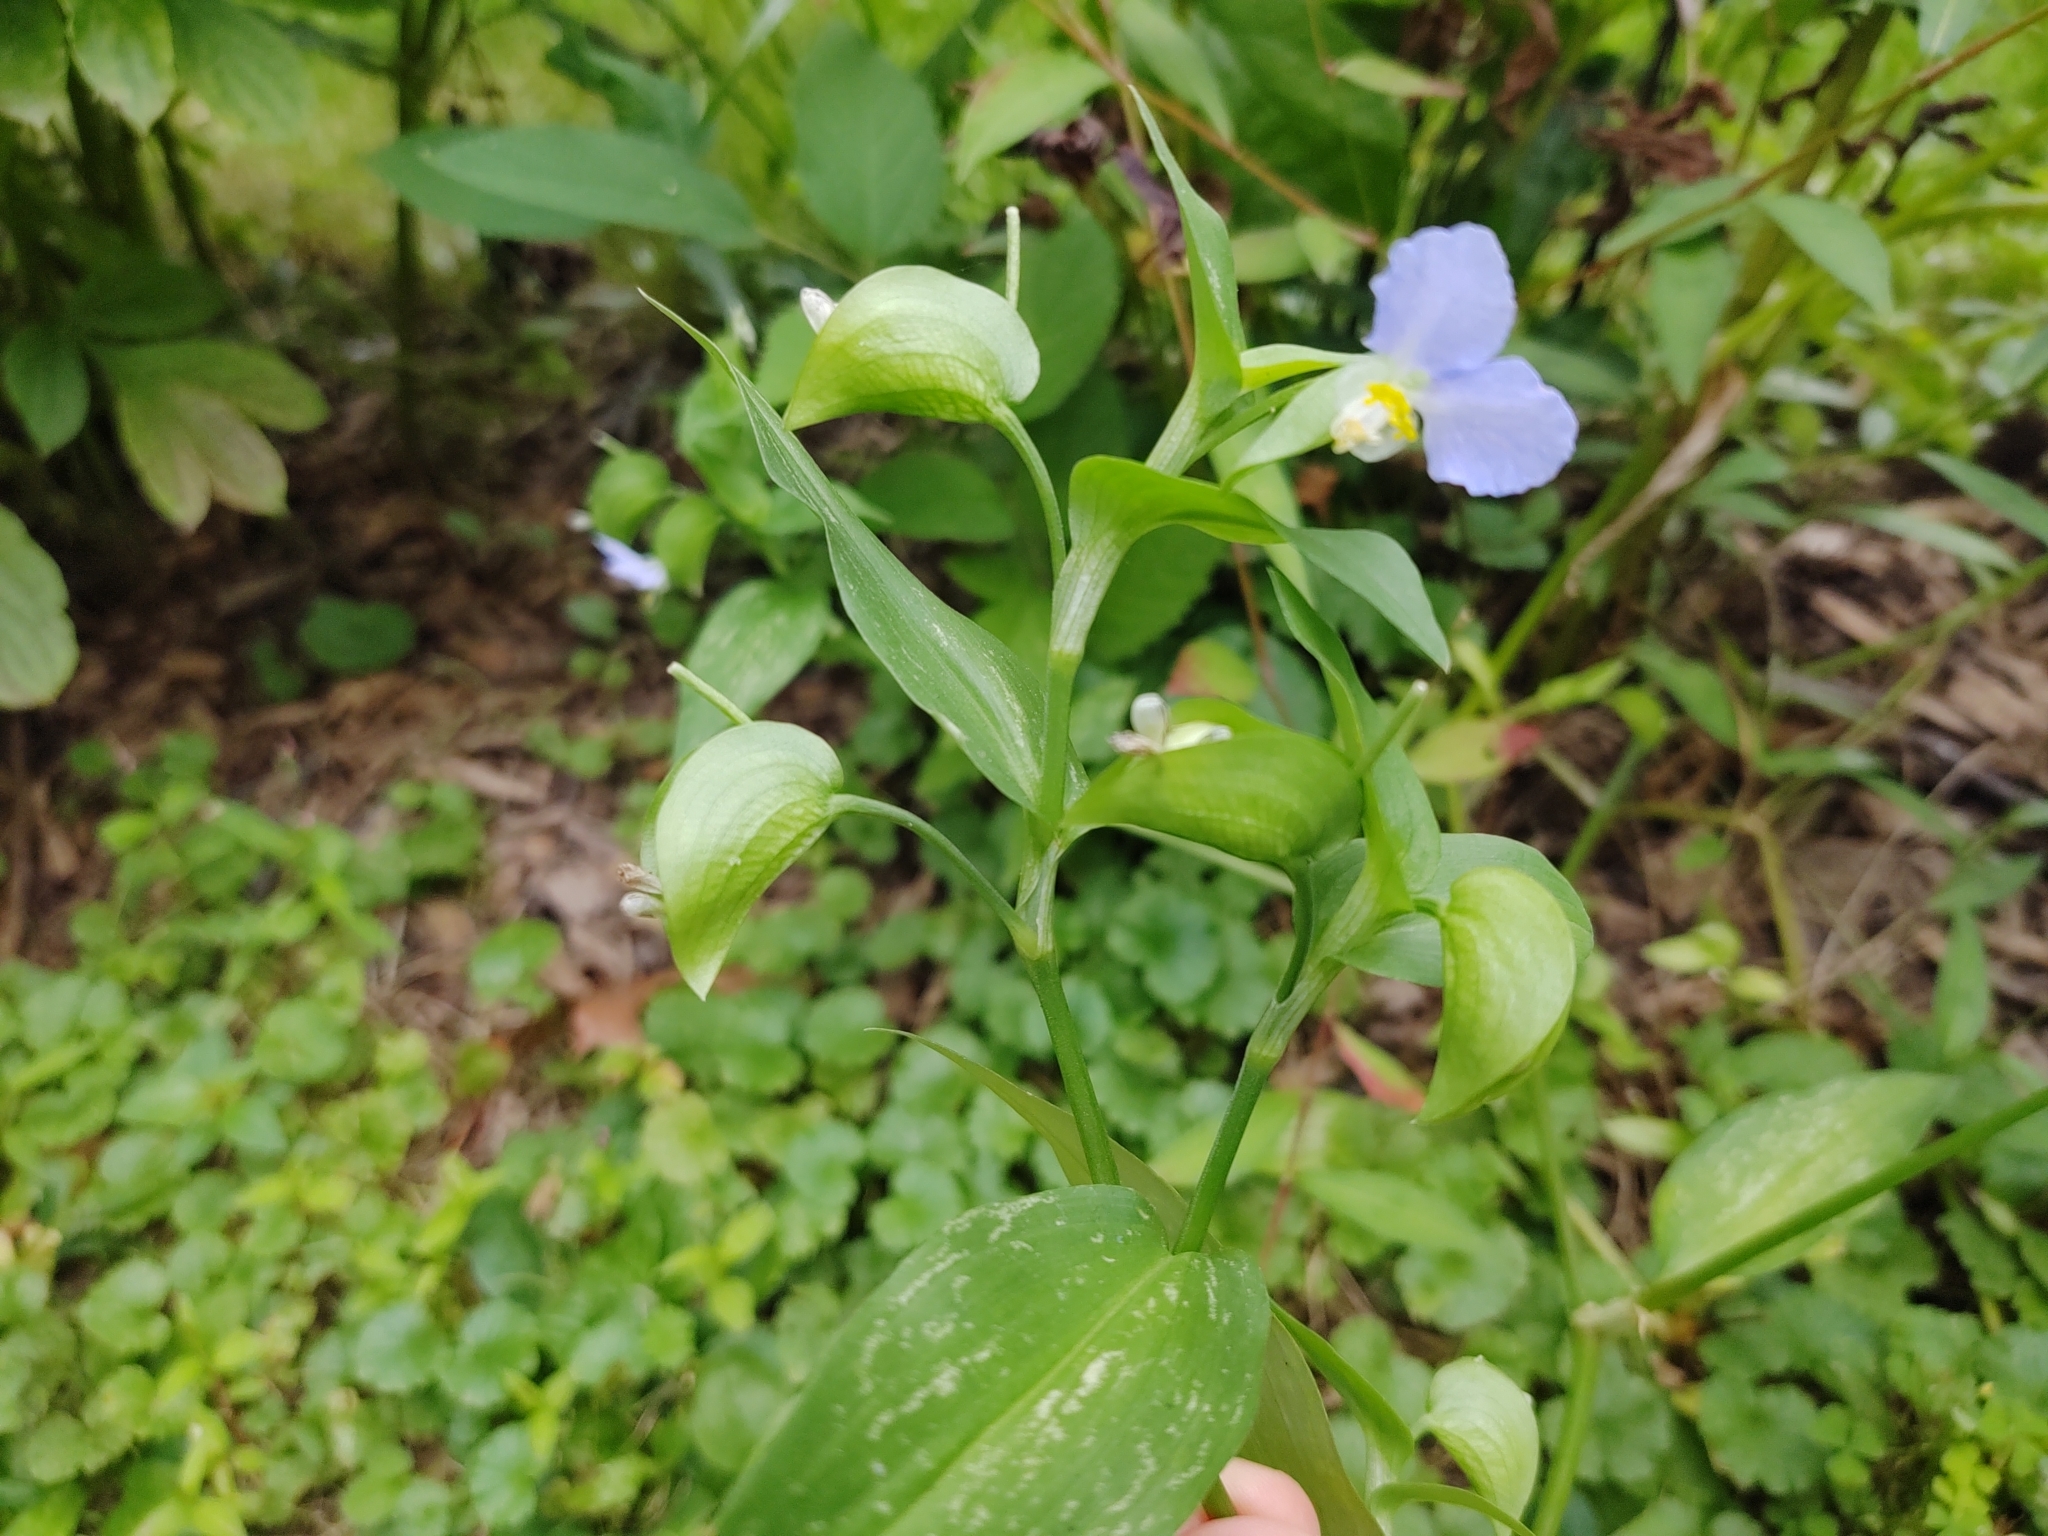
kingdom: Plantae
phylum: Tracheophyta
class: Liliopsida
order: Commelinales
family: Commelinaceae
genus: Commelina
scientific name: Commelina communis
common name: Asiatic dayflower
